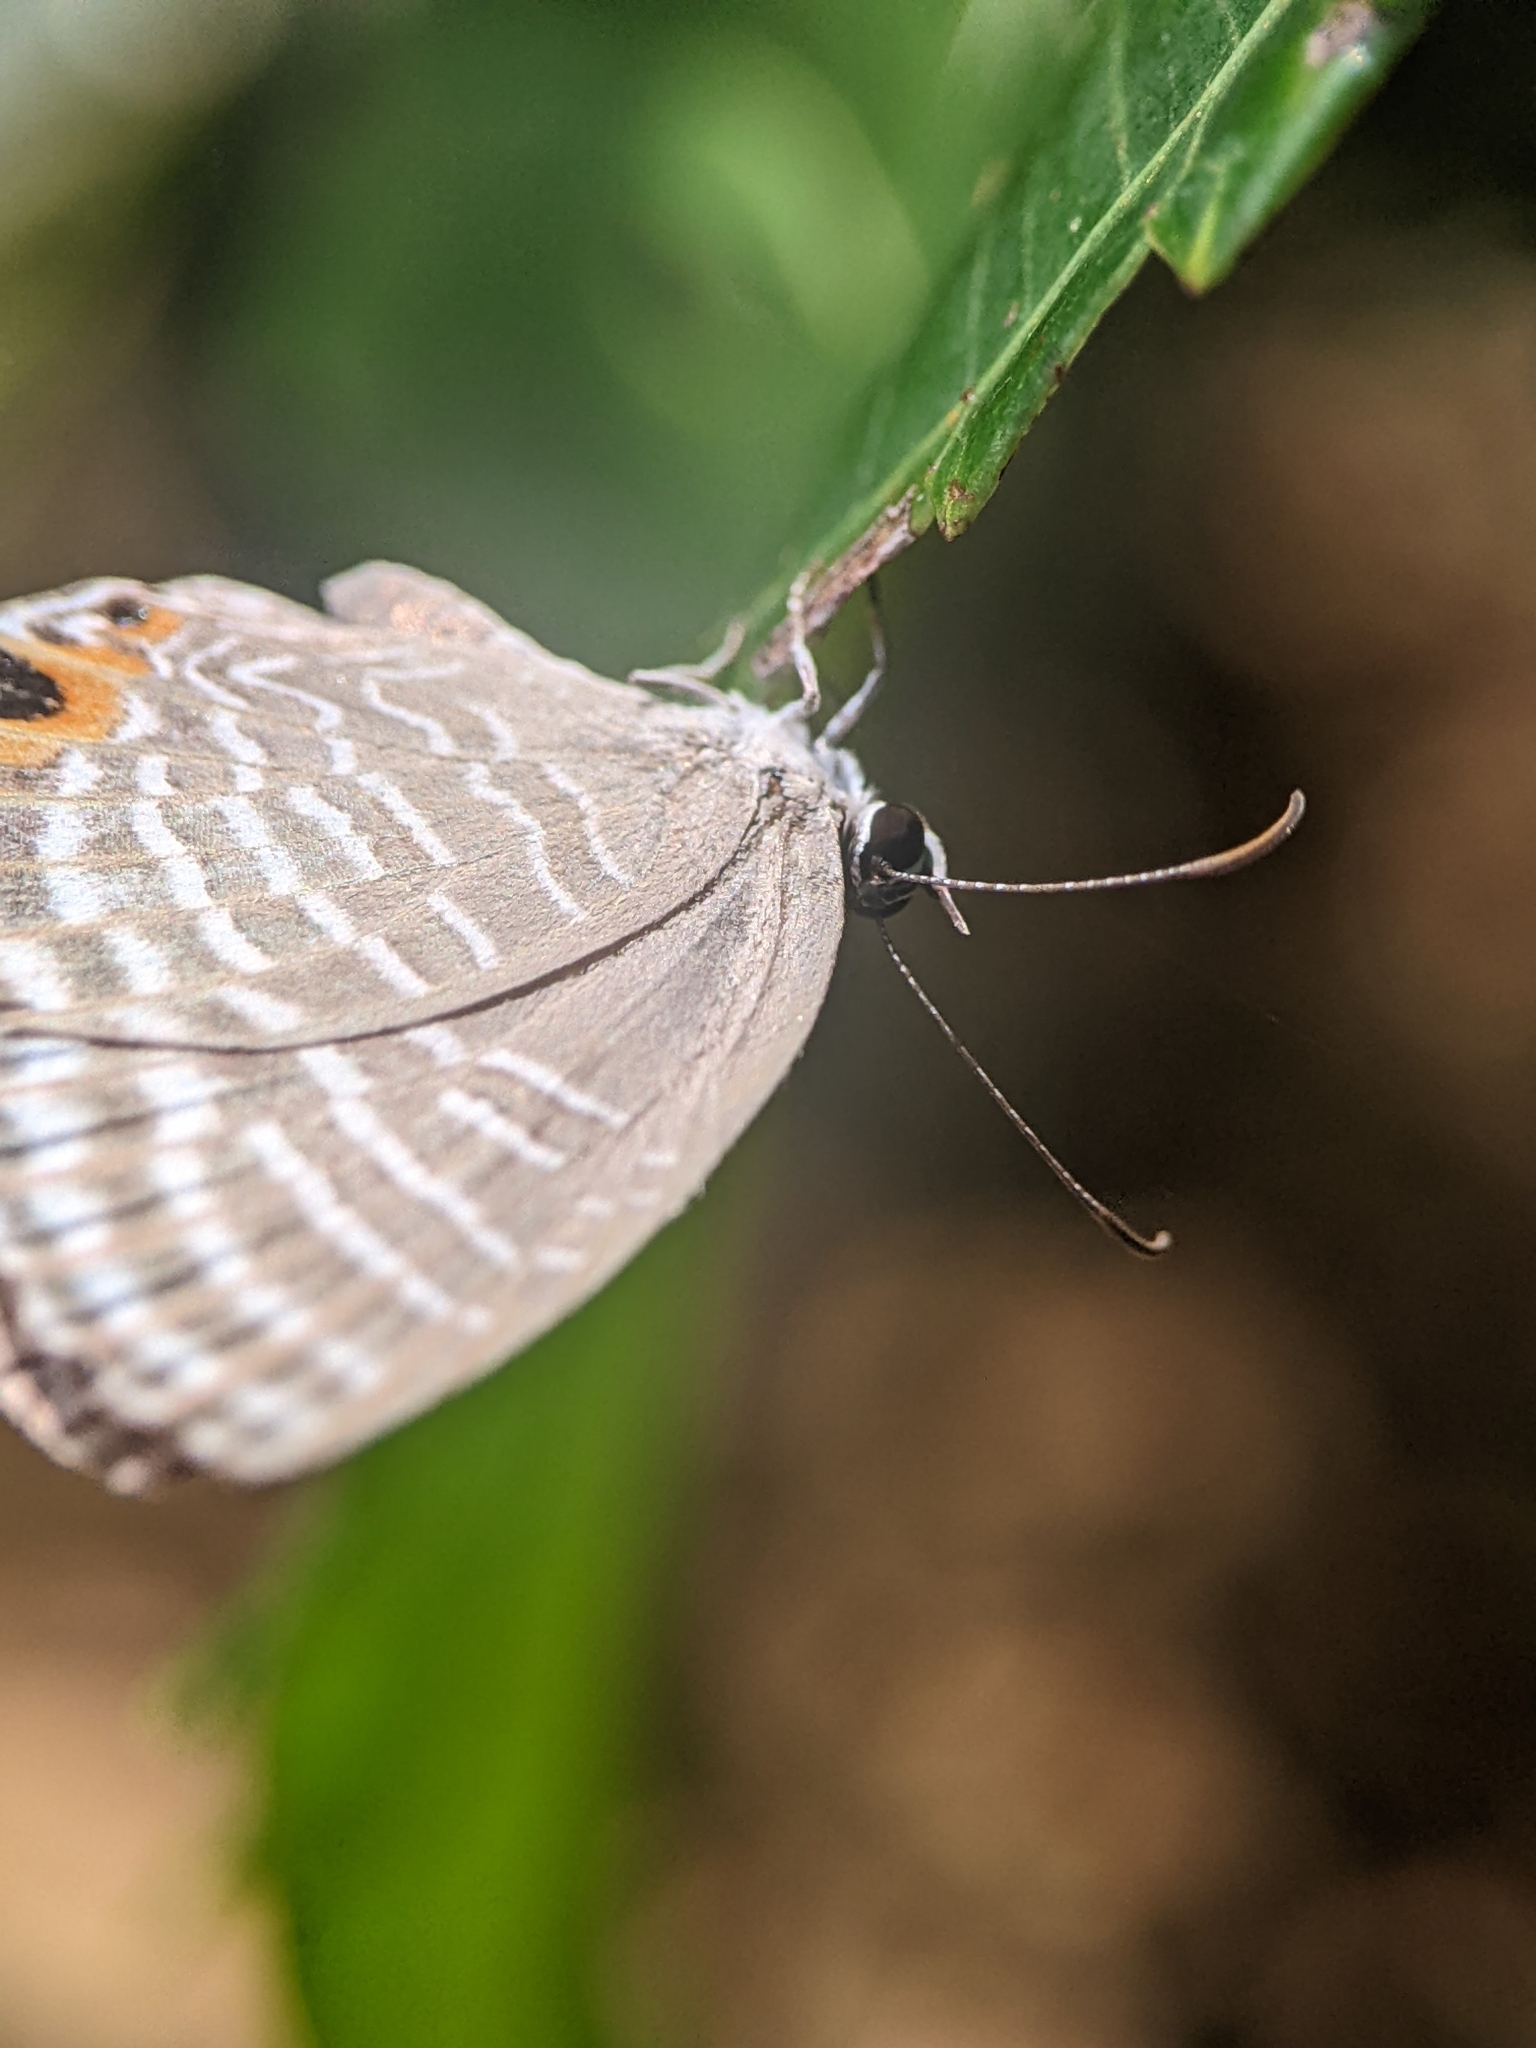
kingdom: Animalia
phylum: Arthropoda
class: Insecta
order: Lepidoptera
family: Lycaenidae
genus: Jamides
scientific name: Jamides celeno
